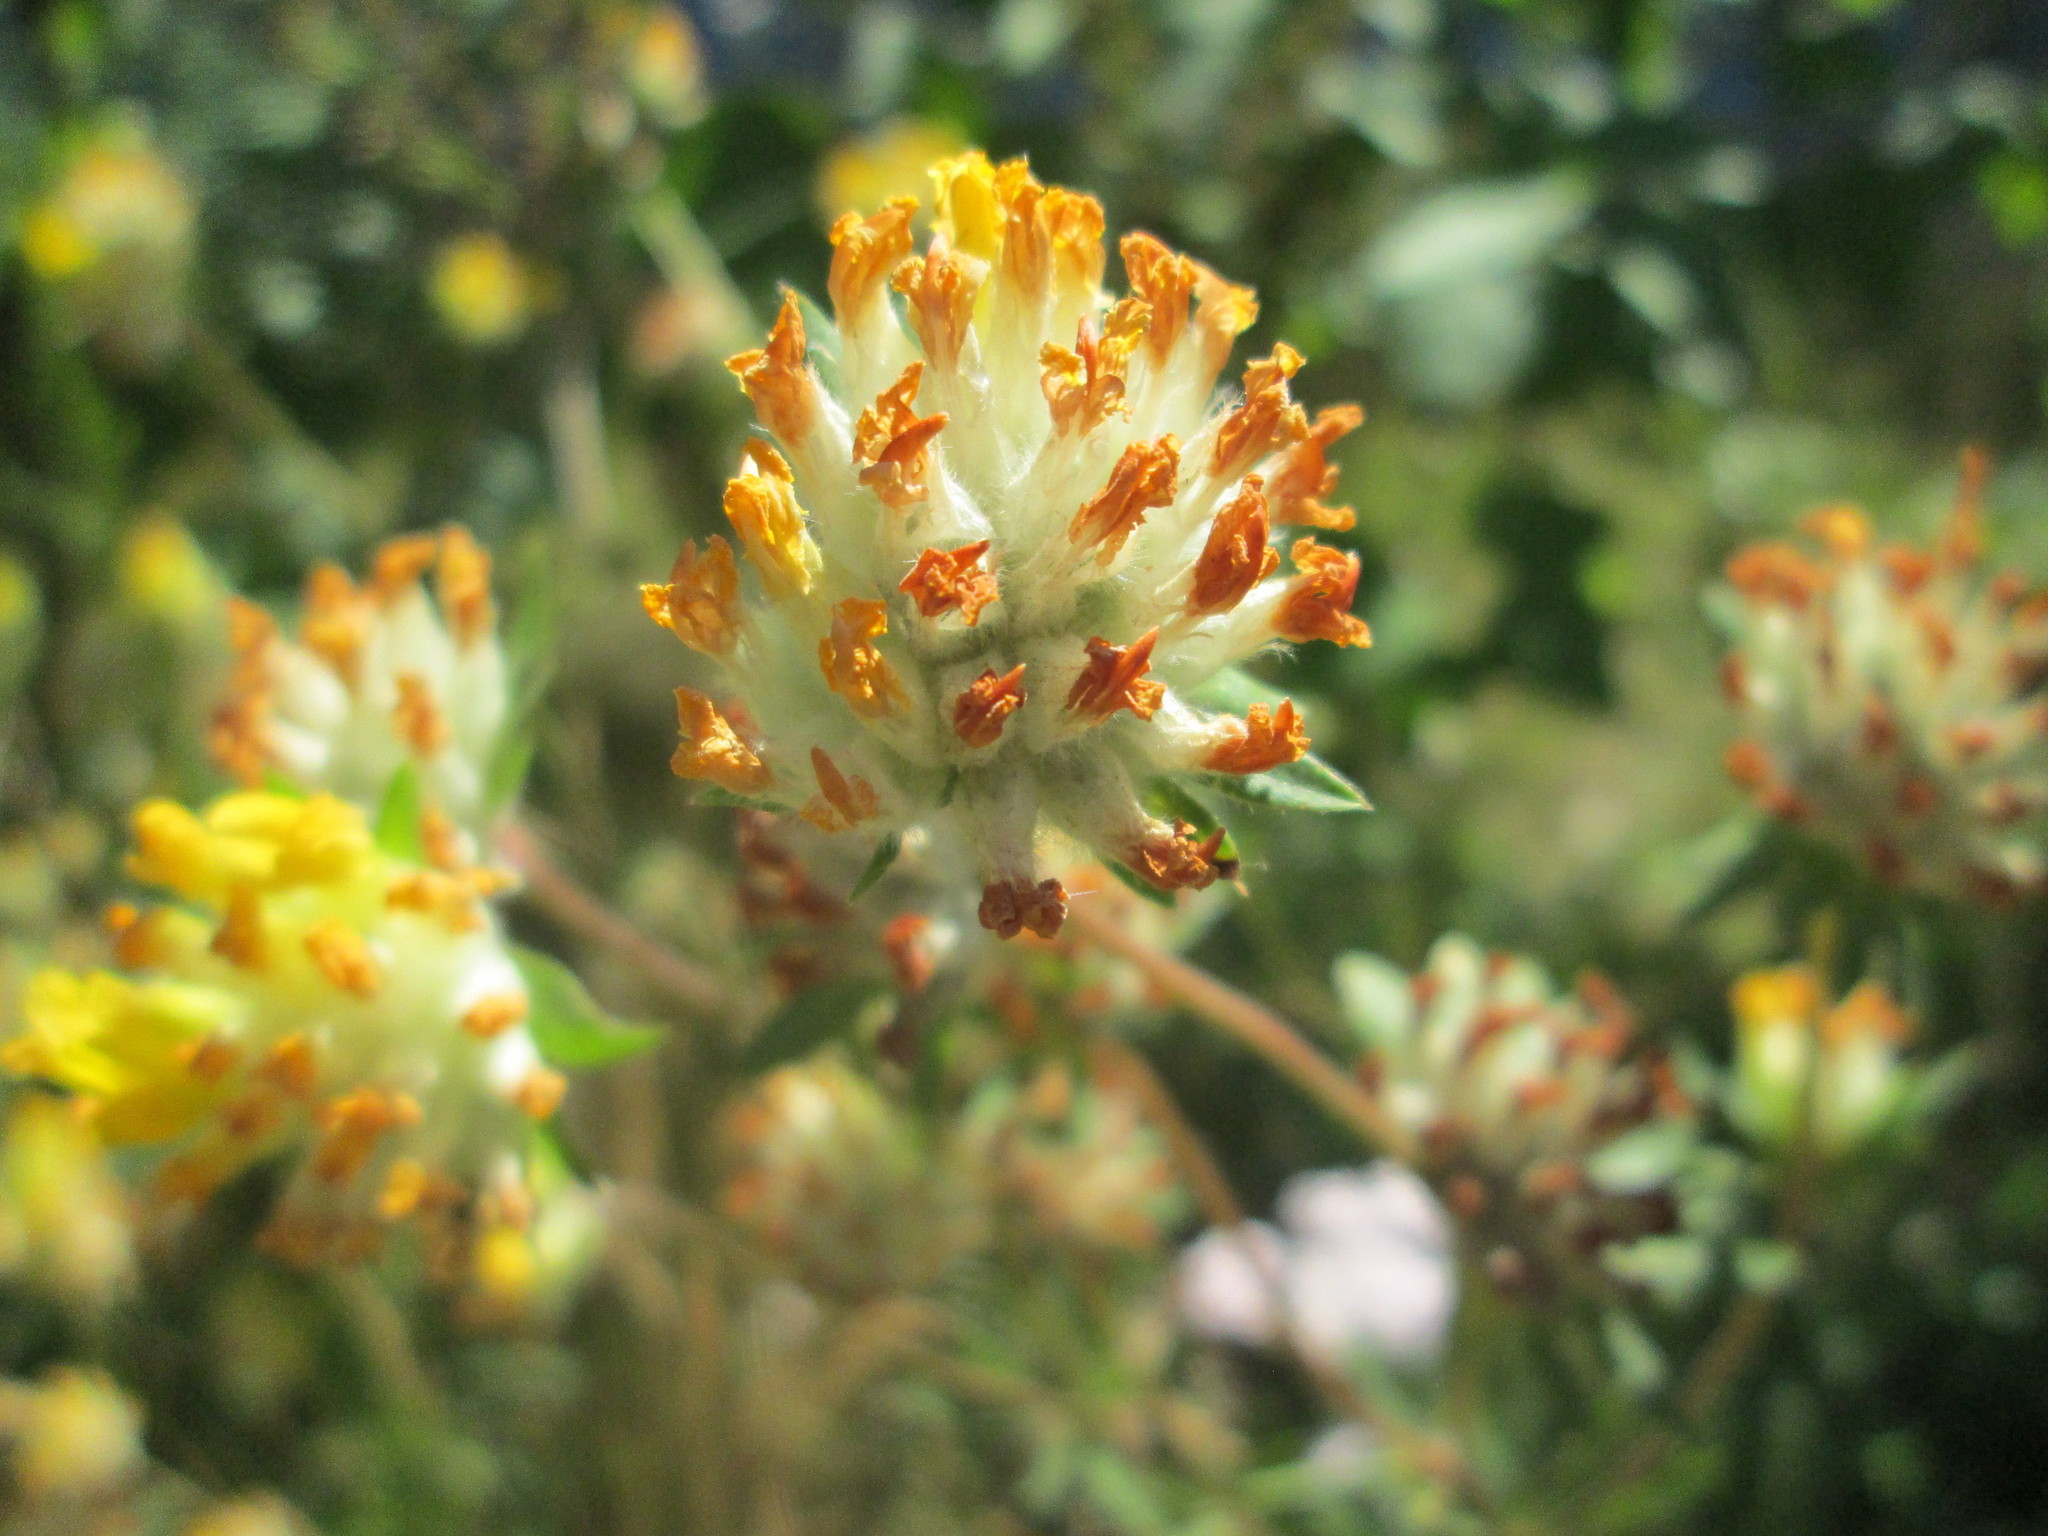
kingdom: Plantae
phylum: Tracheophyta
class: Magnoliopsida
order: Fabales
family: Fabaceae
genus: Anthyllis
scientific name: Anthyllis vulneraria
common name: Kidney vetch
